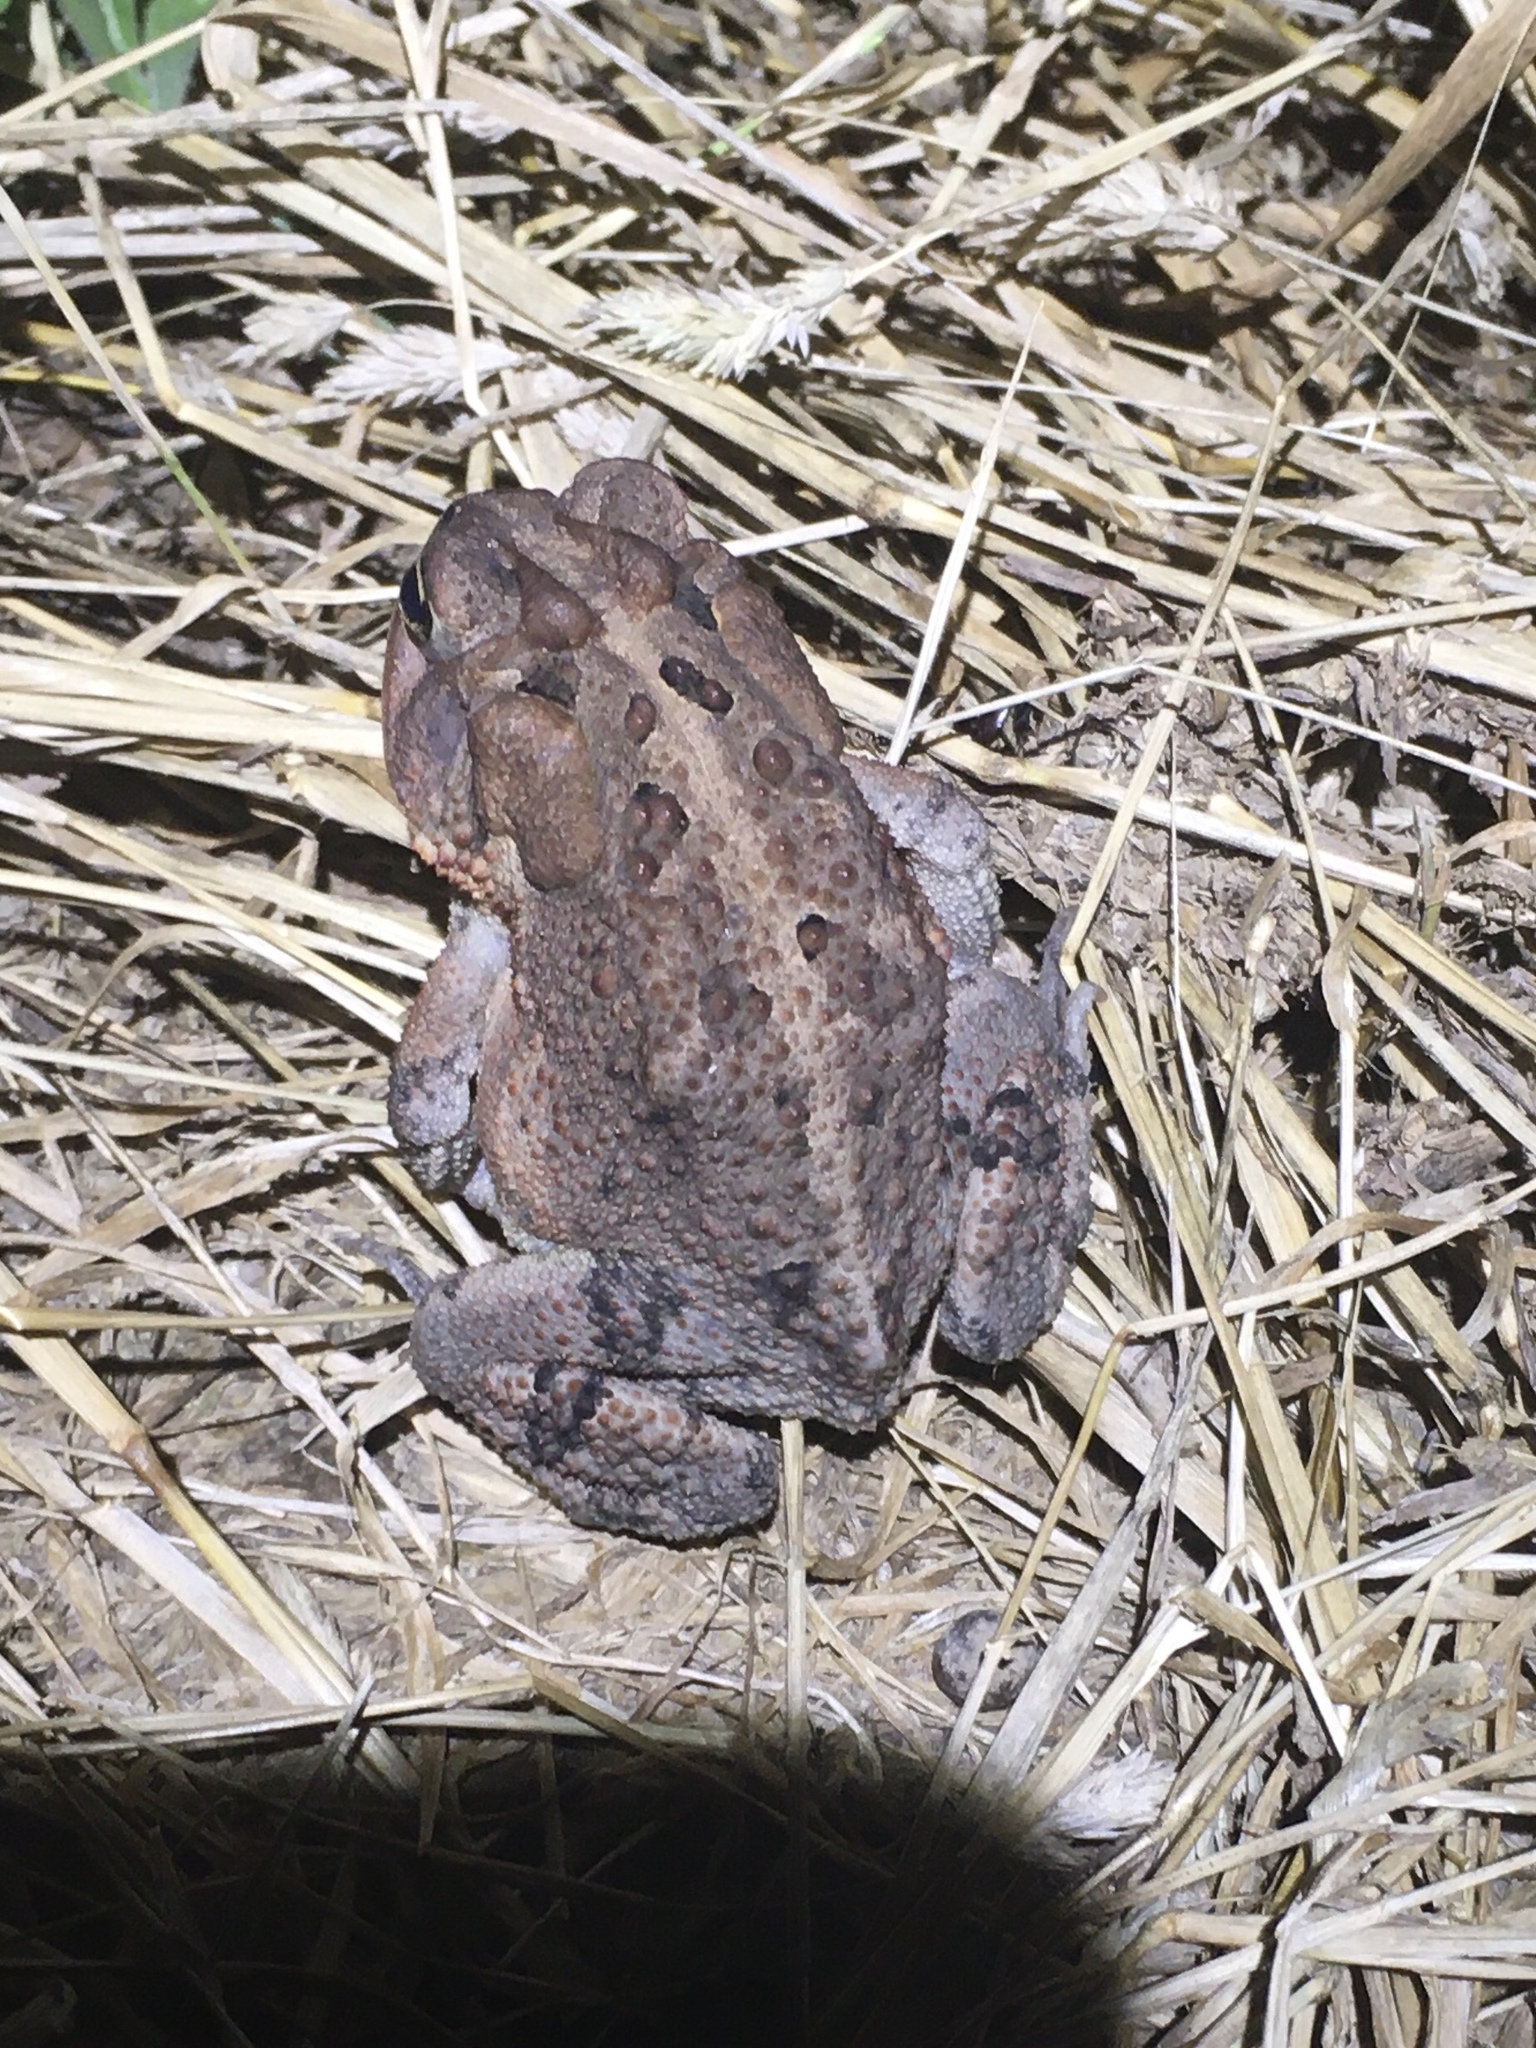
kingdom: Animalia
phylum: Chordata
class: Amphibia
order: Anura
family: Bufonidae
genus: Anaxyrus
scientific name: Anaxyrus terrestris
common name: Southern toad
